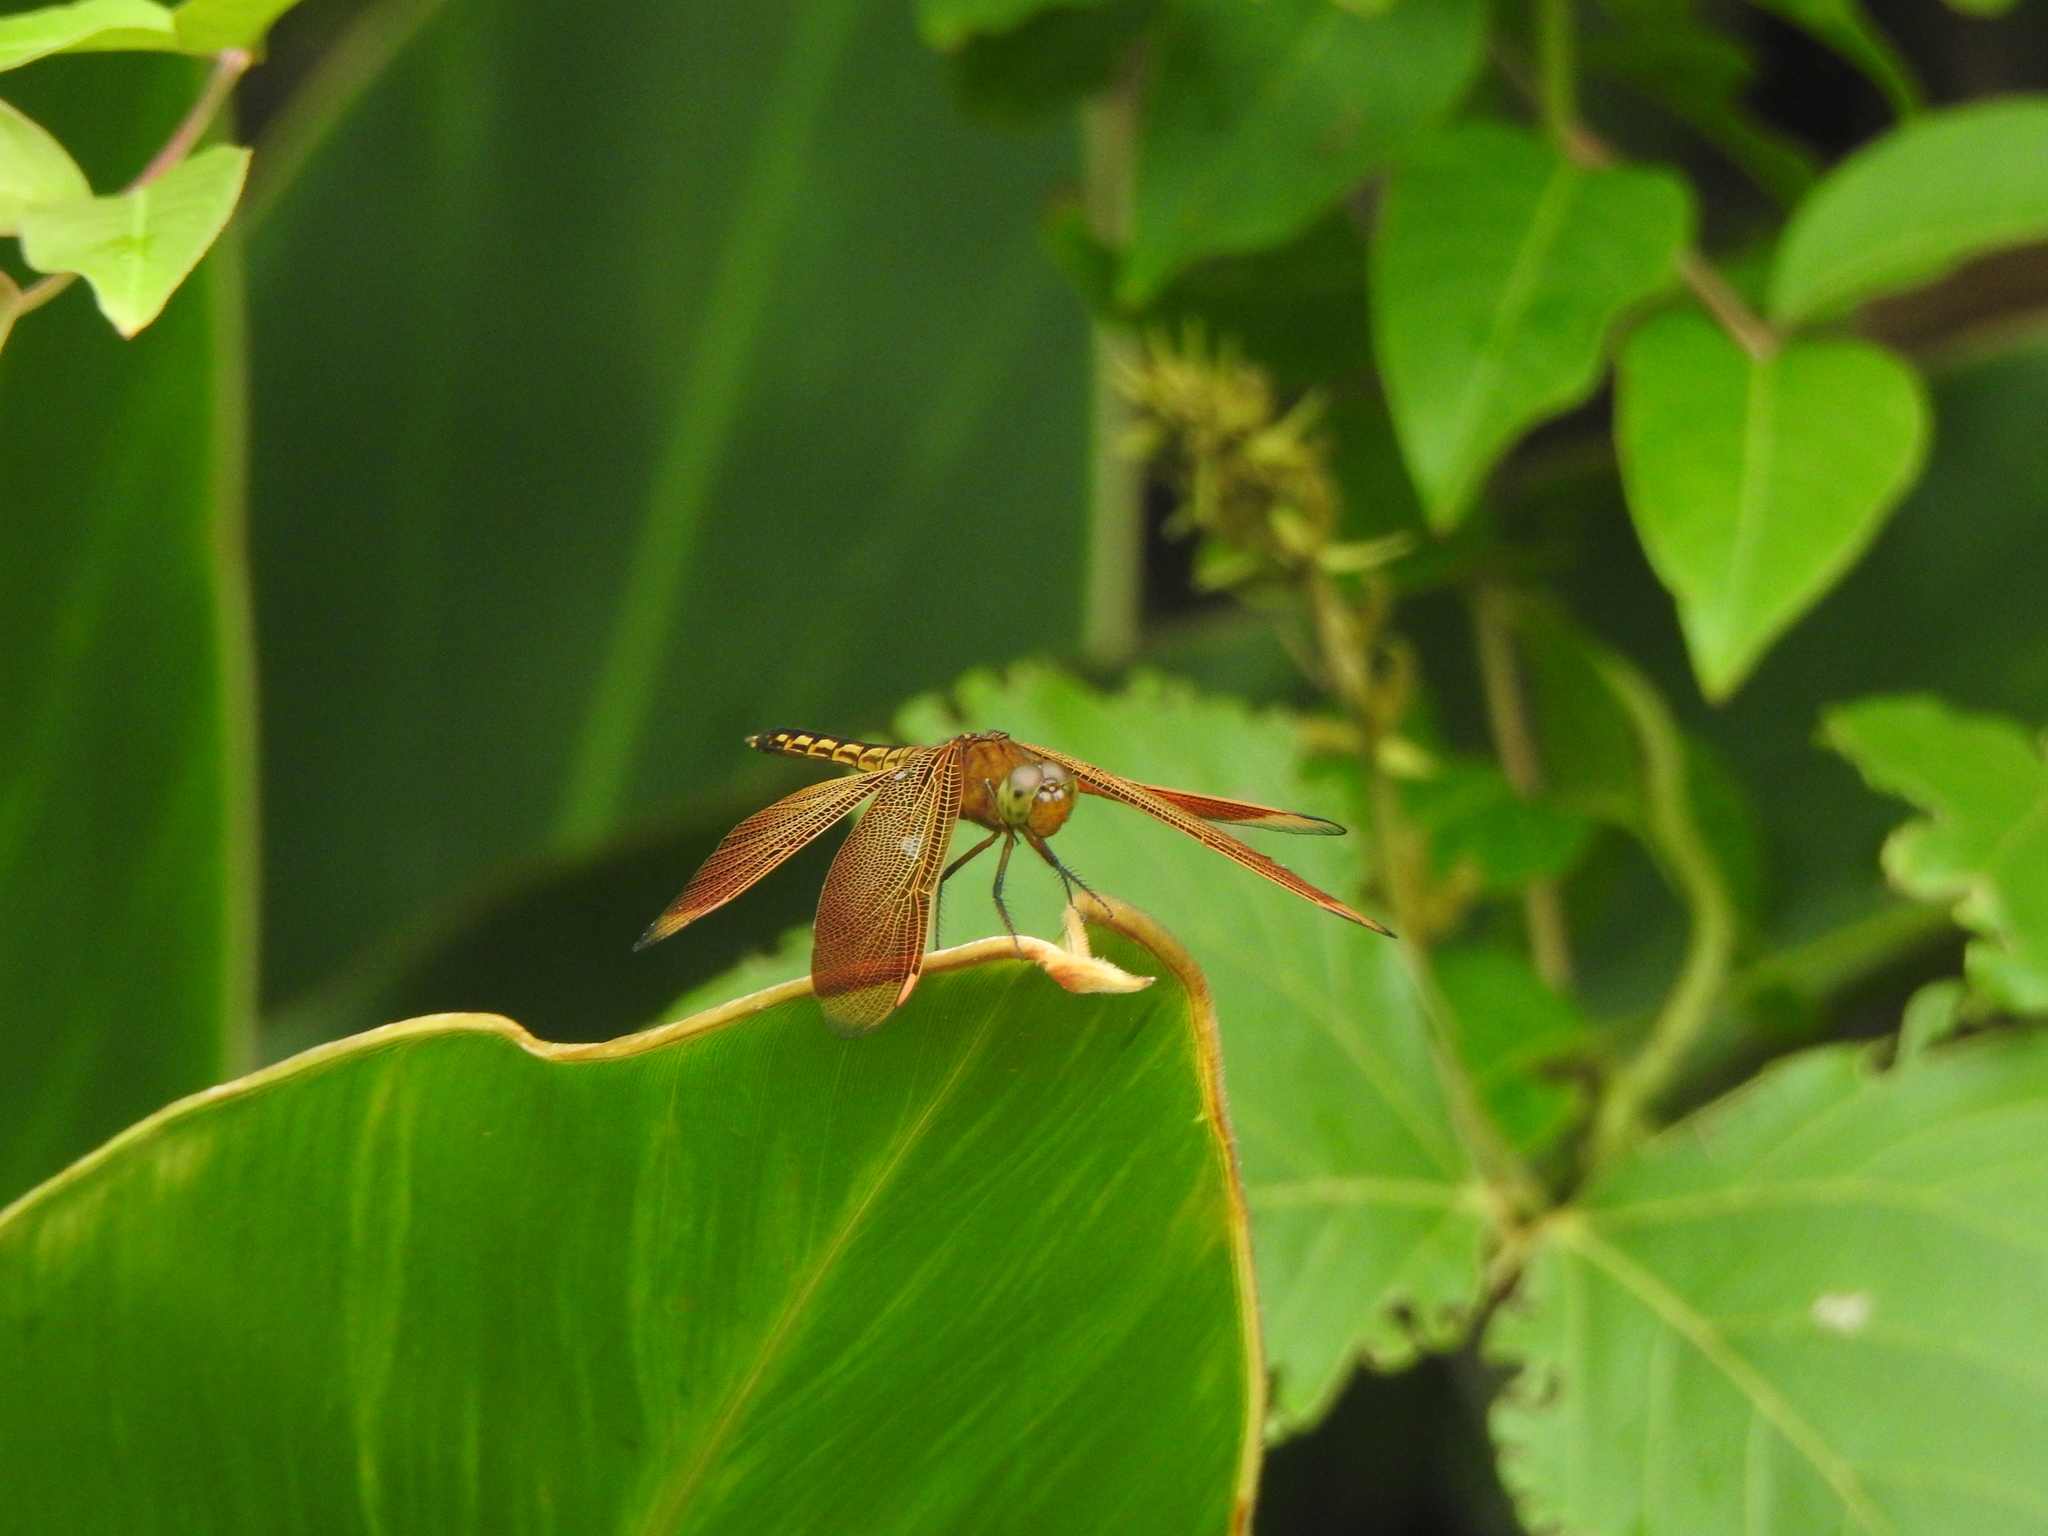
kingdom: Animalia
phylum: Arthropoda
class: Insecta
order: Odonata
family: Libellulidae
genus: Neurothemis
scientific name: Neurothemis taiwanensis
